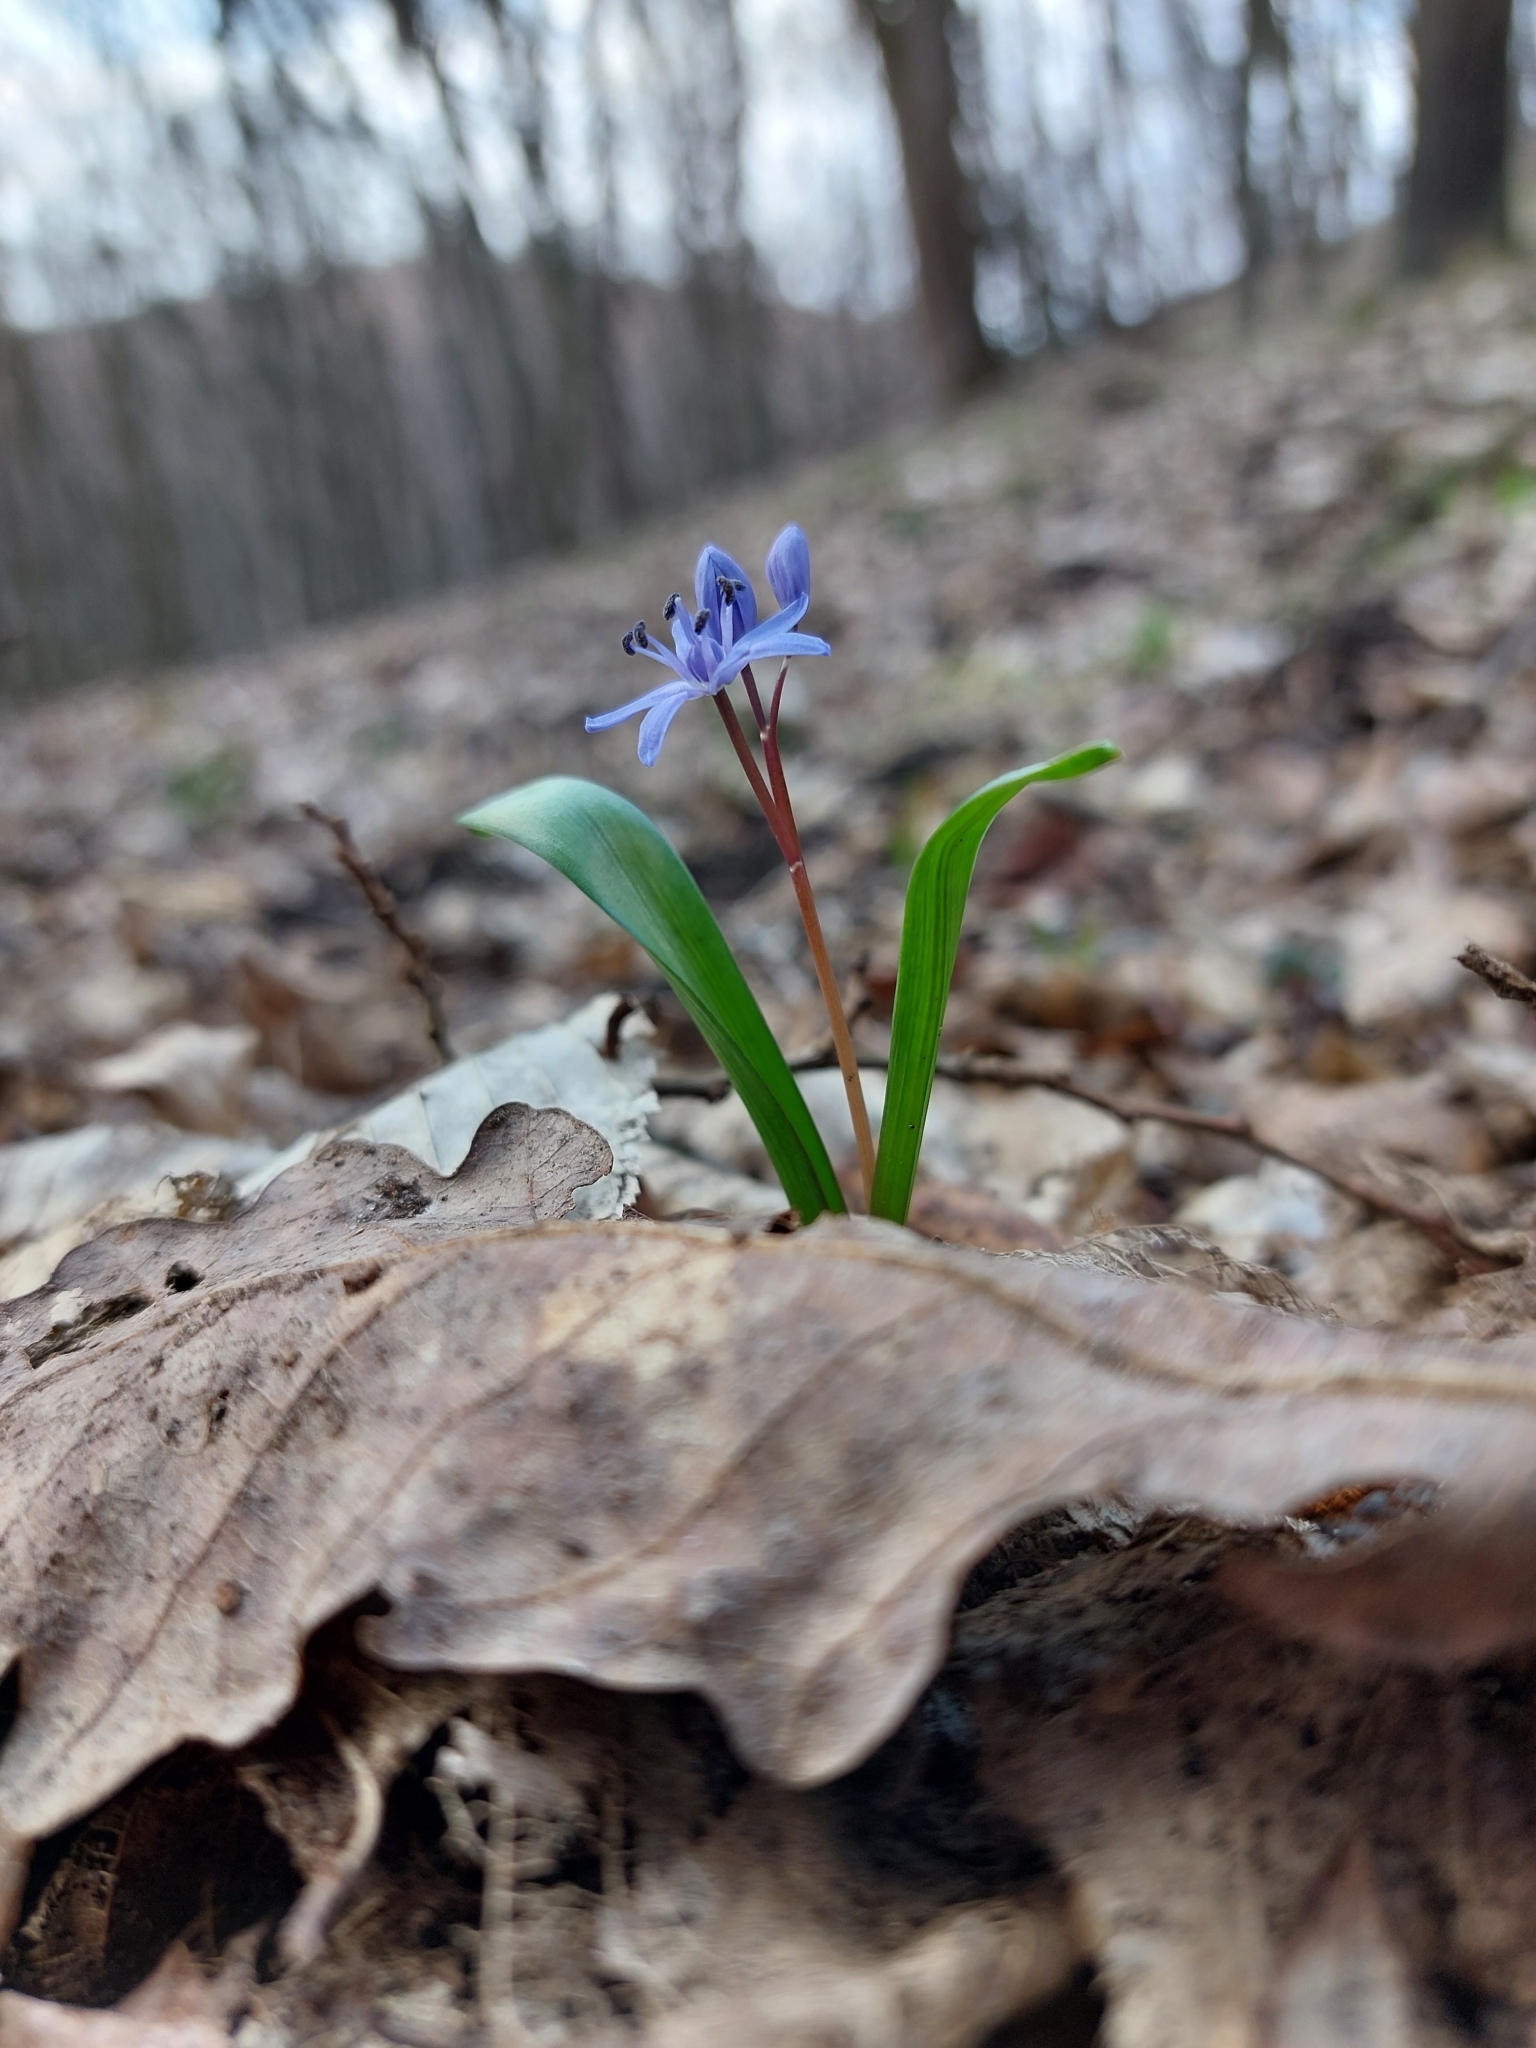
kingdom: Plantae
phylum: Tracheophyta
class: Liliopsida
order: Asparagales
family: Asparagaceae
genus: Scilla
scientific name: Scilla bifolia
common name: Alpine squill
